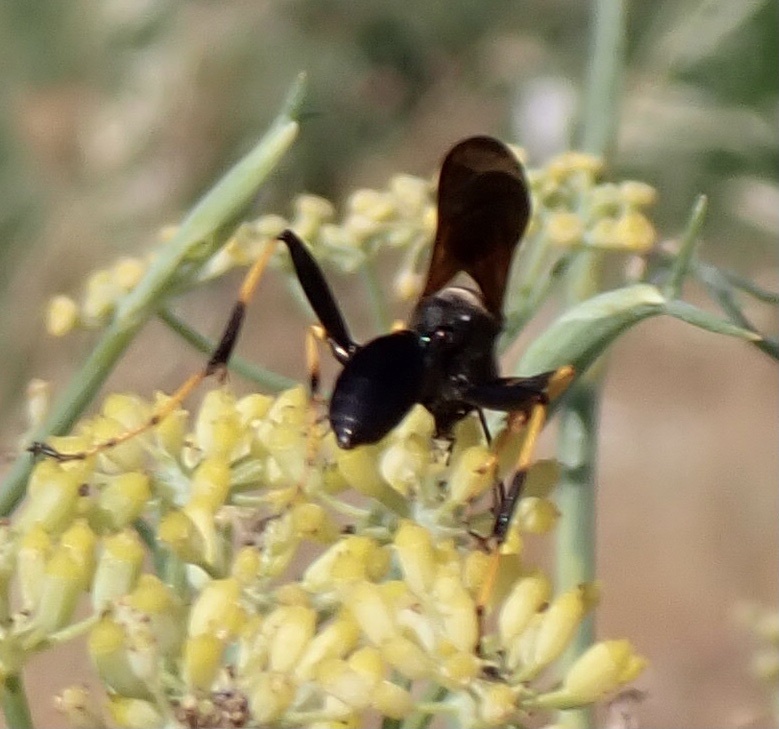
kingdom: Animalia
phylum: Arthropoda
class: Insecta
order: Hymenoptera
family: Sphecidae
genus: Sceliphron
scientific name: Sceliphron caementarium
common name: Mud dauber
